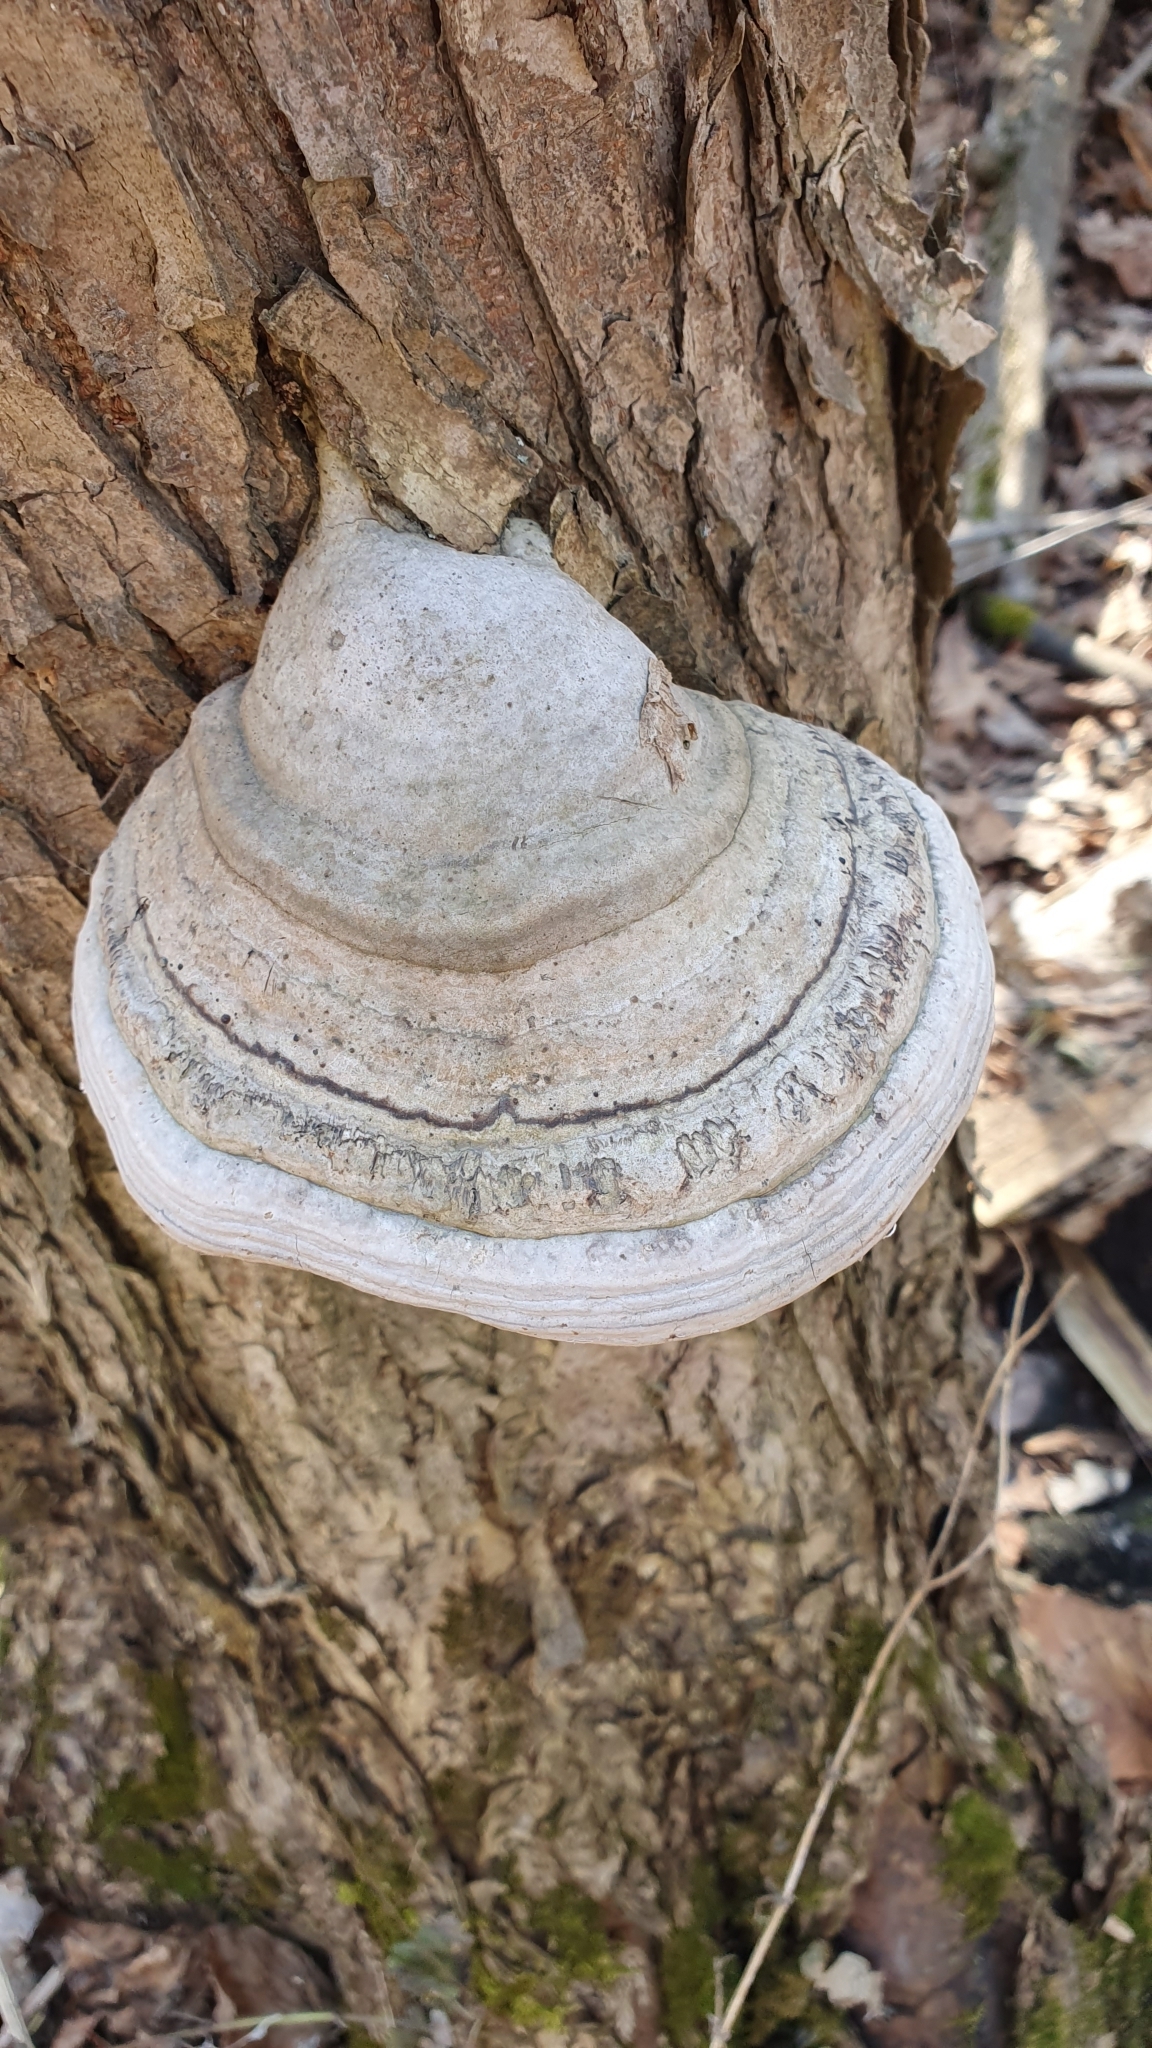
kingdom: Fungi
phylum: Basidiomycota
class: Agaricomycetes
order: Polyporales
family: Polyporaceae
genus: Fomes
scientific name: Fomes fomentarius
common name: Hoof fungus
